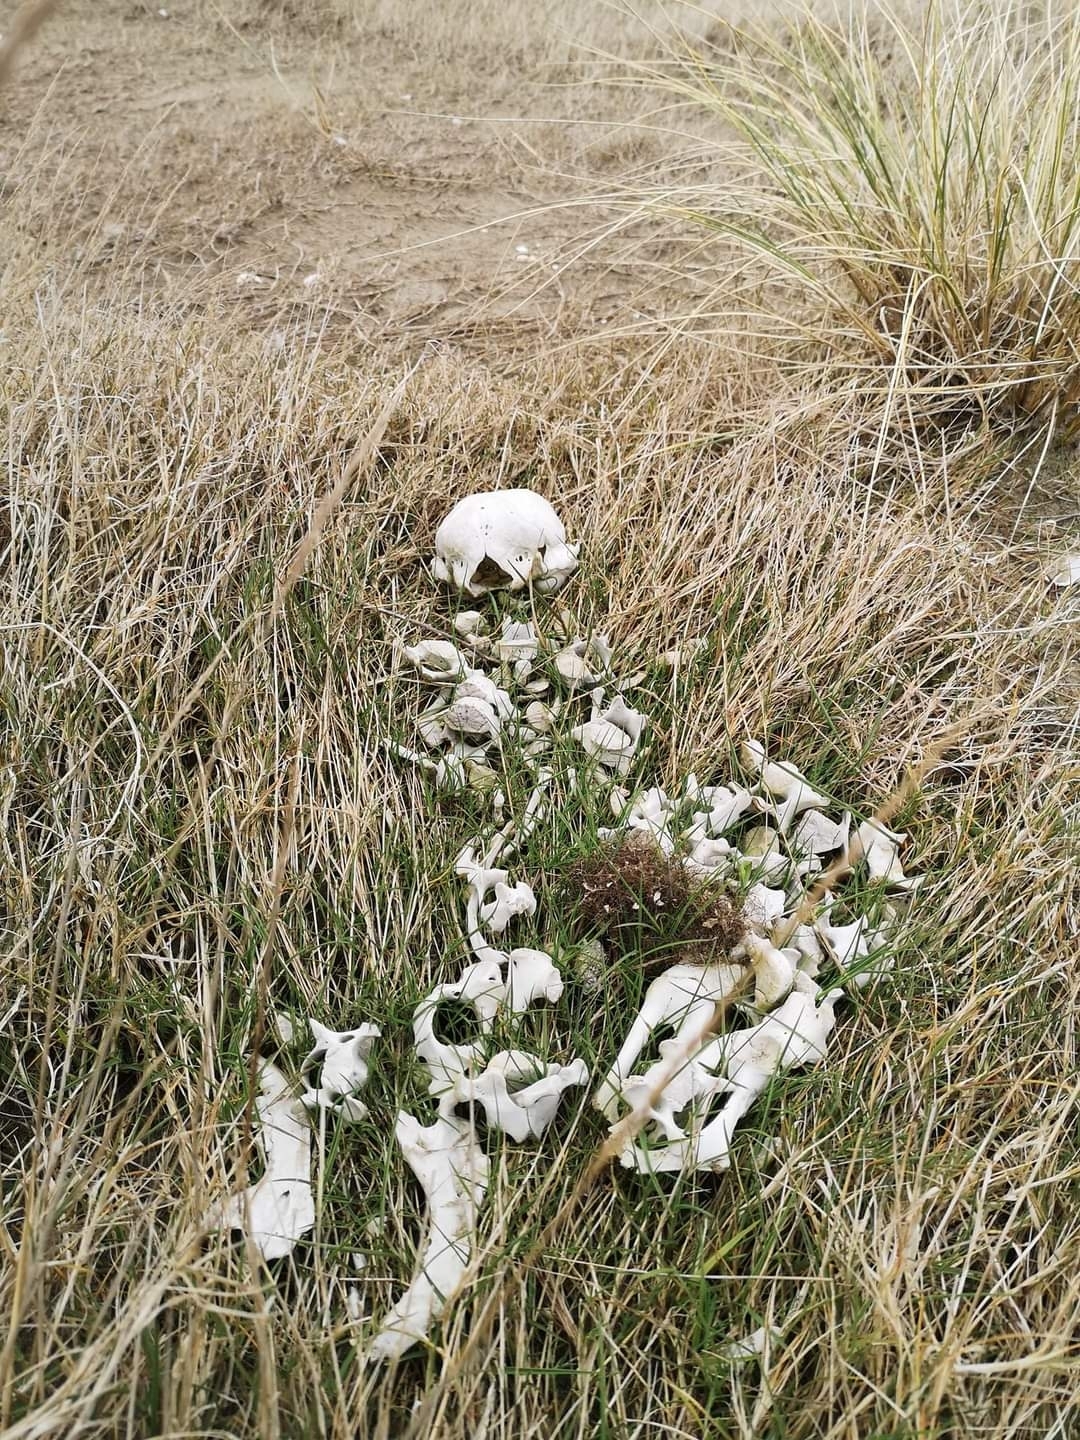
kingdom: Animalia
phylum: Chordata
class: Mammalia
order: Carnivora
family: Phocidae
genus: Phoca
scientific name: Phoca vitulina
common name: Harbor seal
